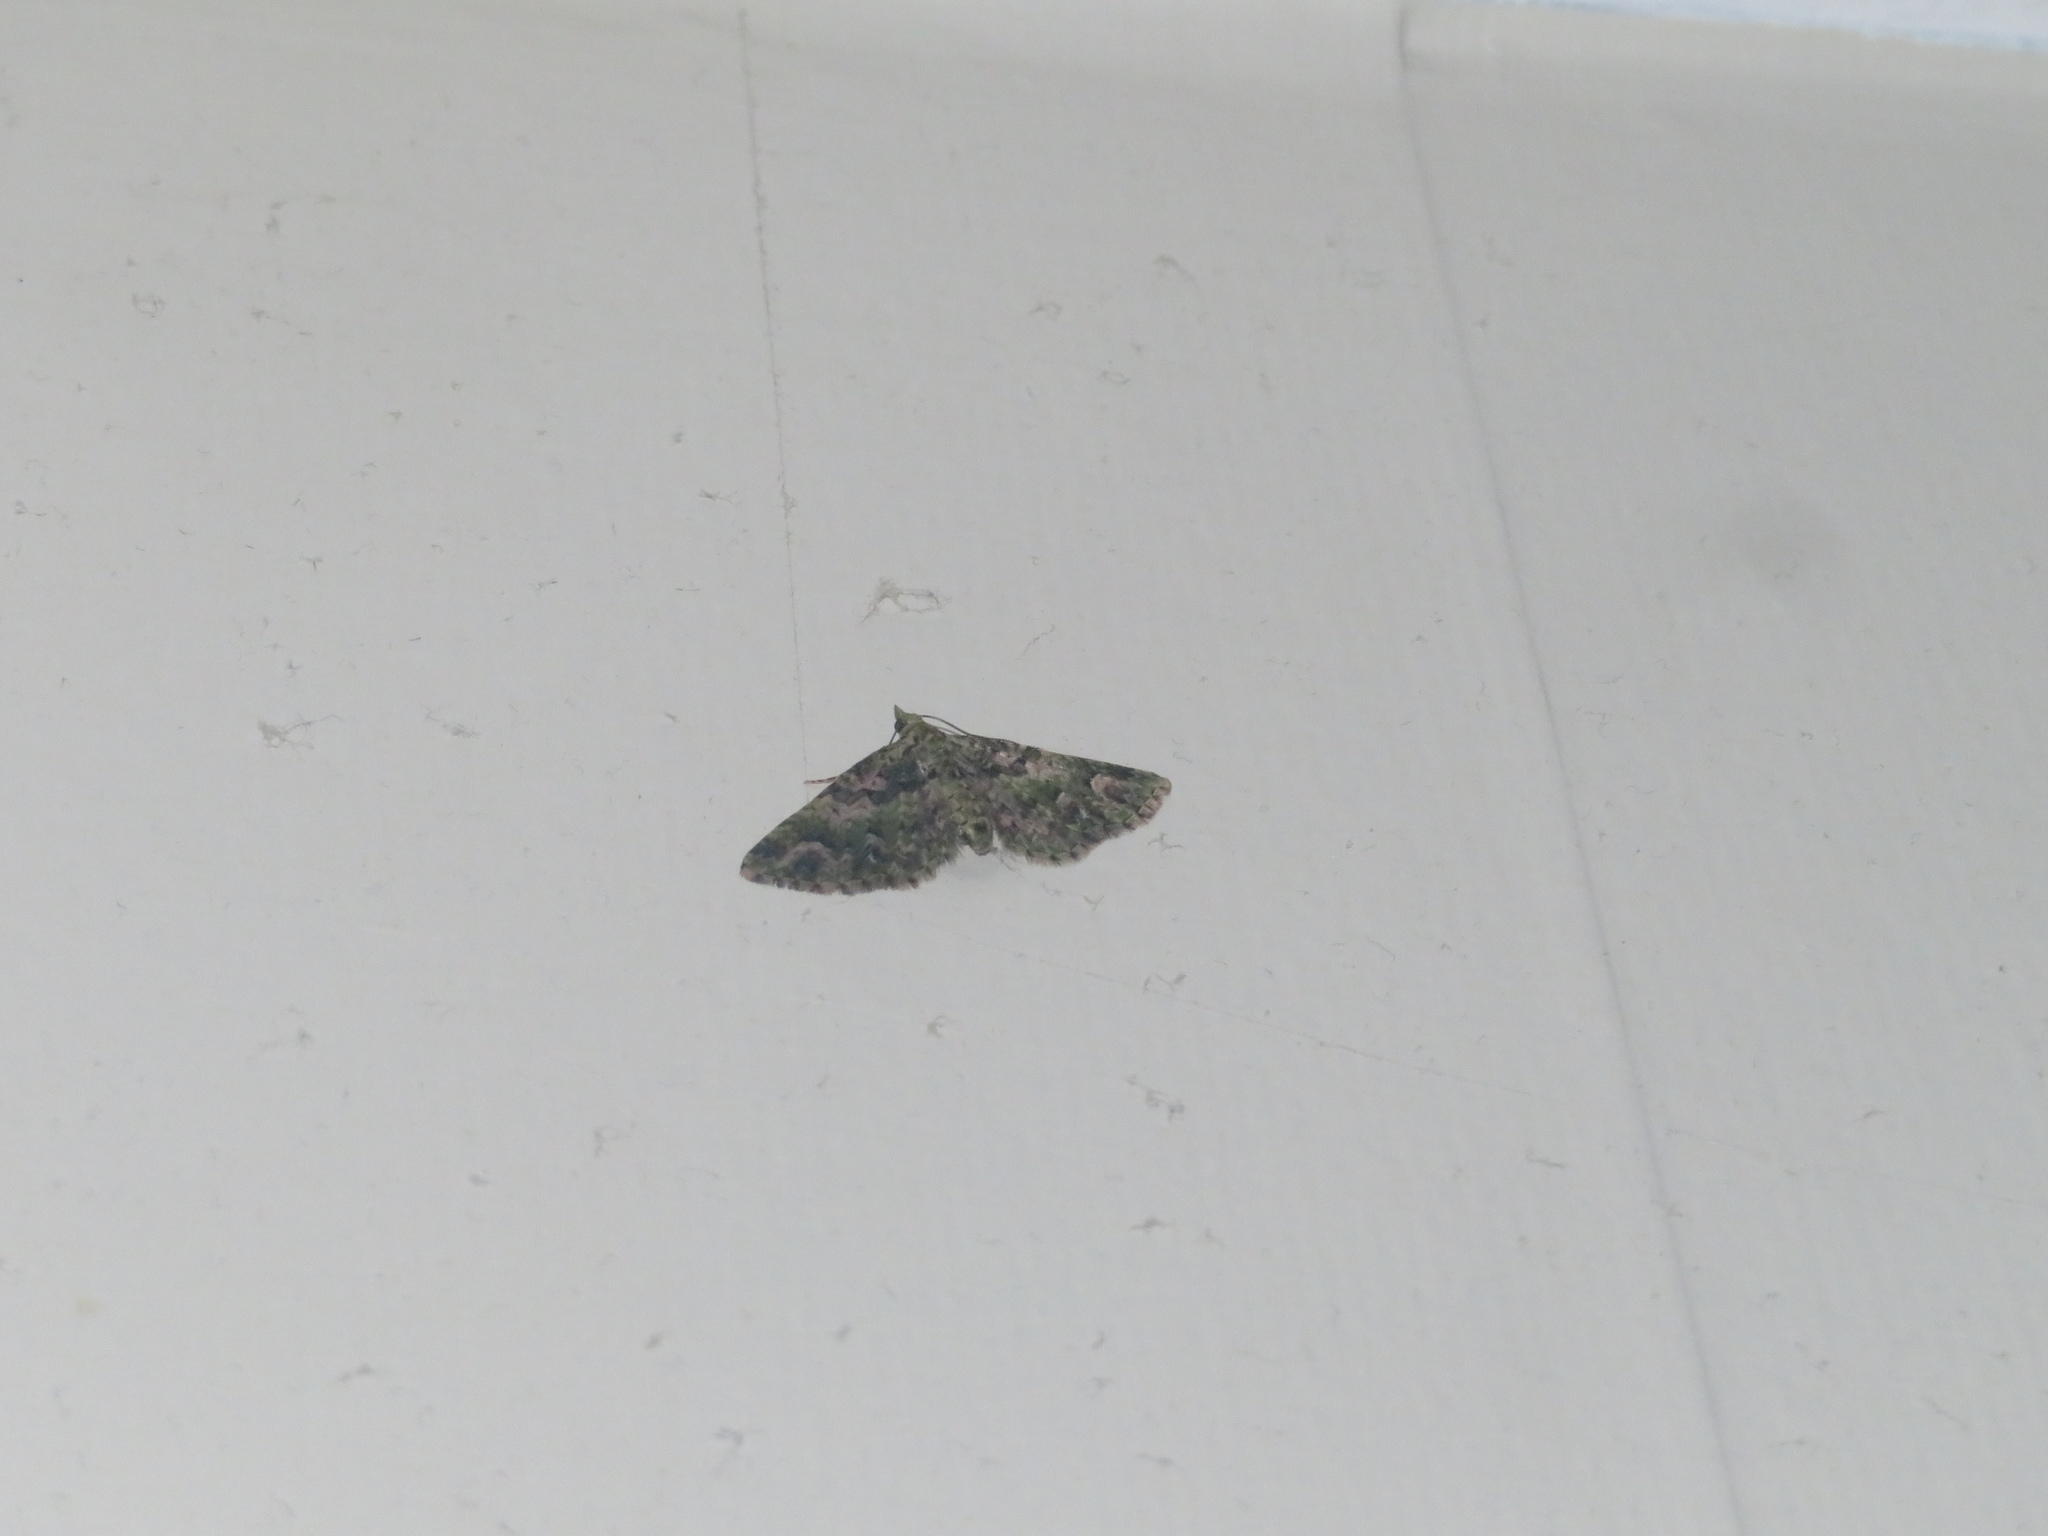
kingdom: Animalia
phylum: Arthropoda
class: Insecta
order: Lepidoptera
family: Geometridae
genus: Idaea
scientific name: Idaea mutanda
